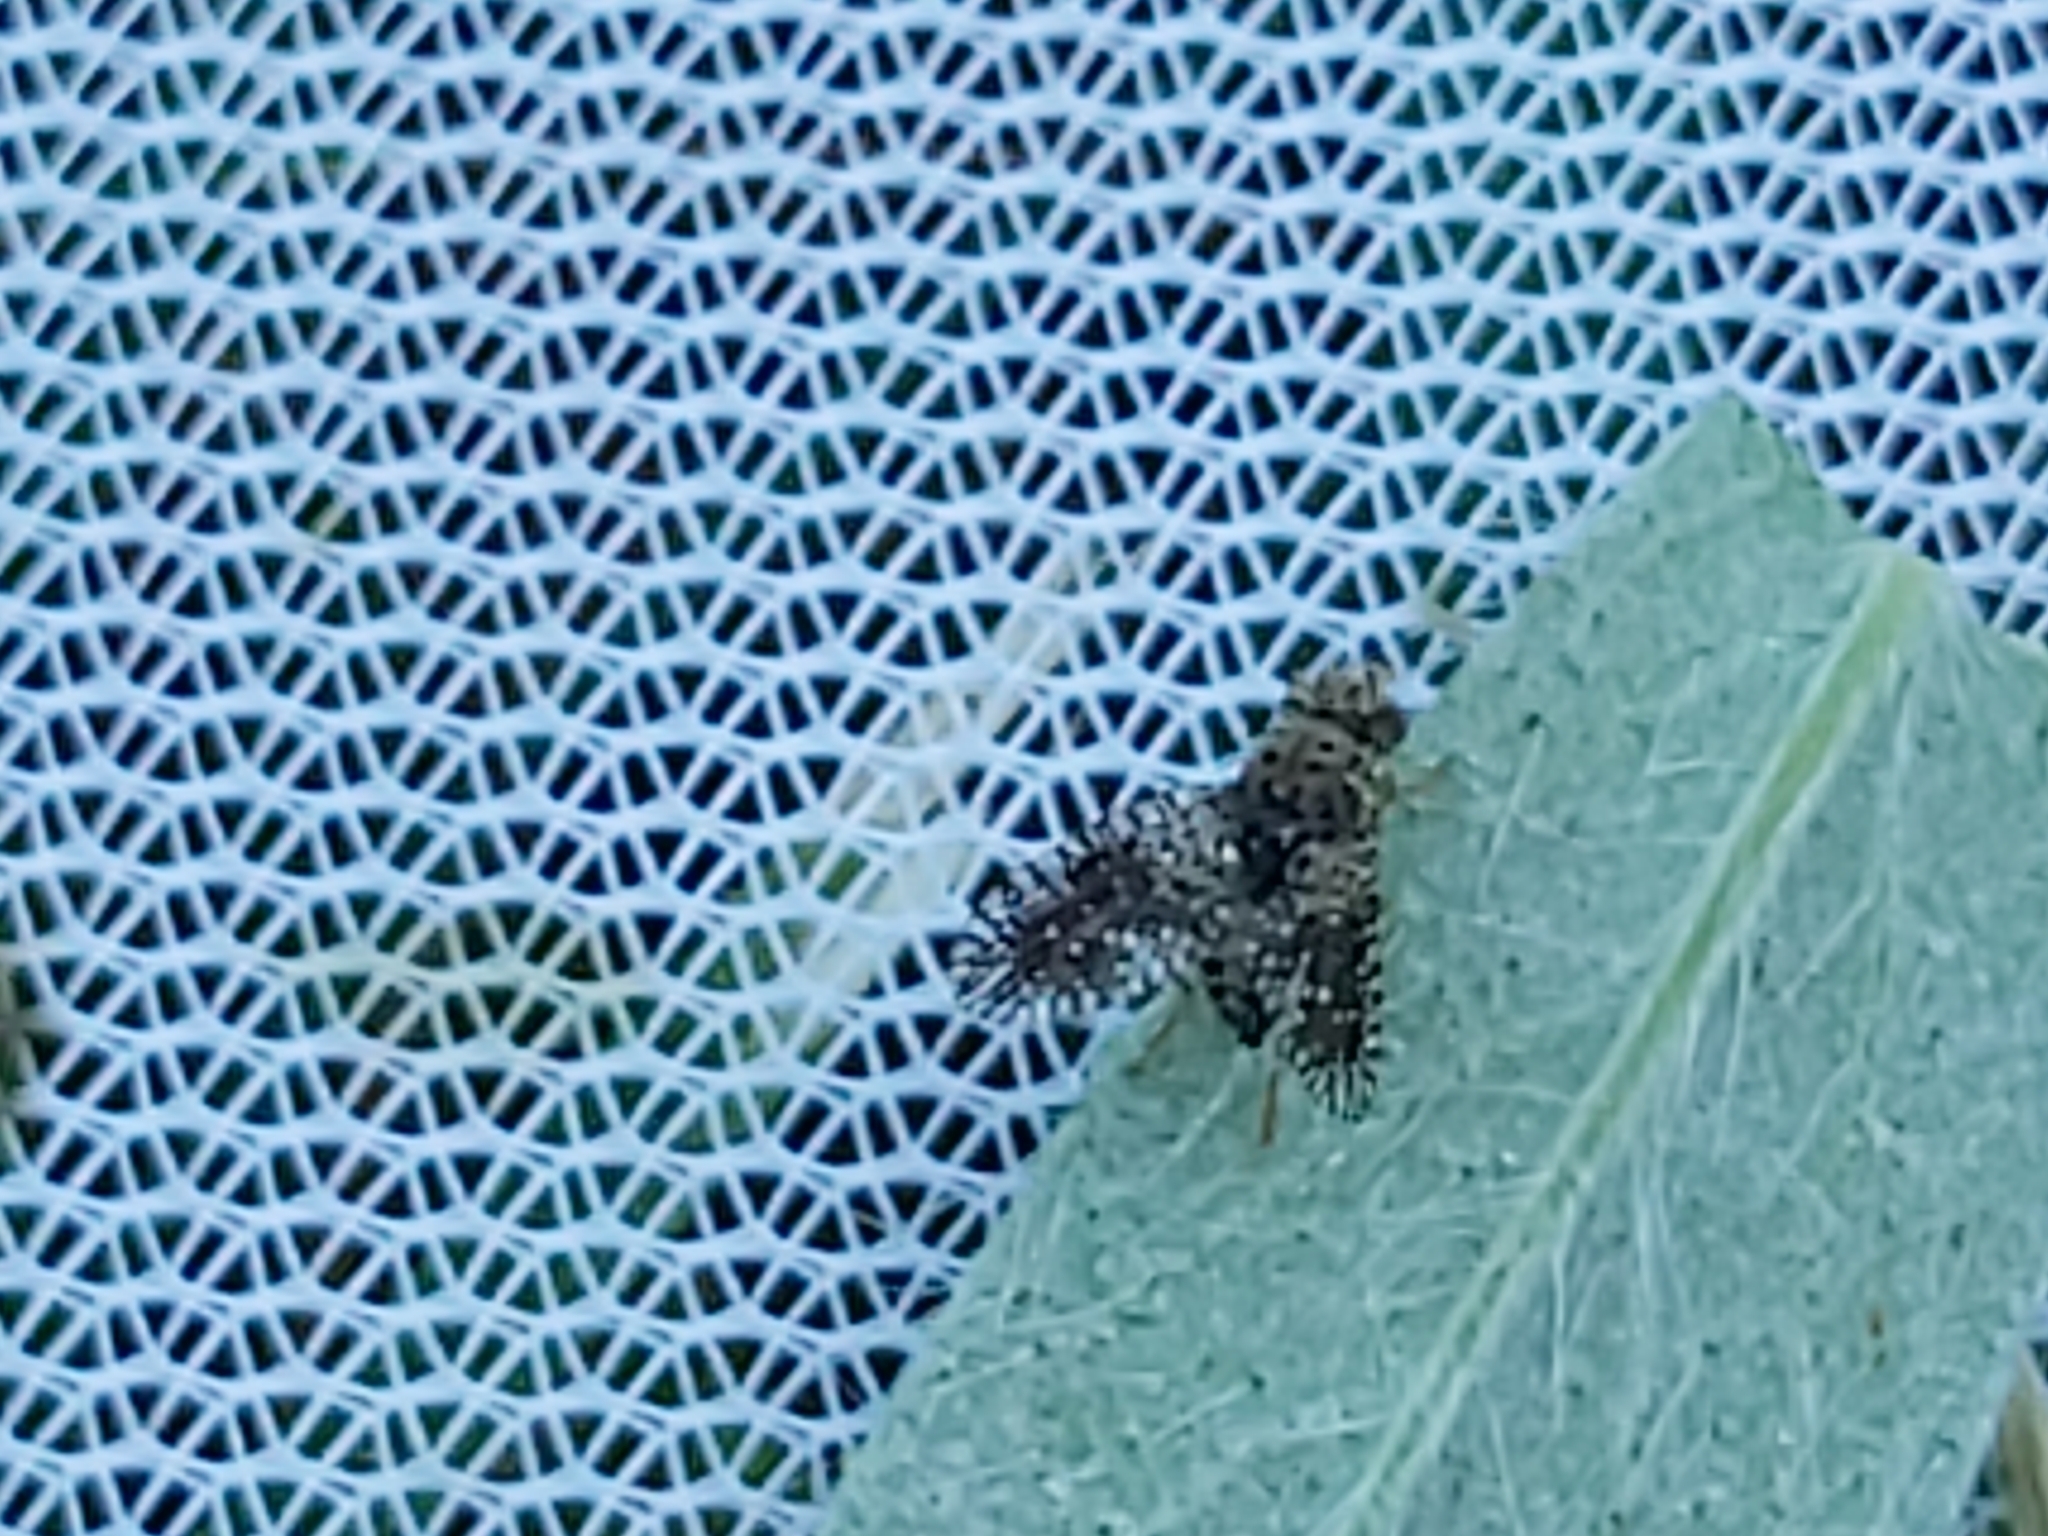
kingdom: Animalia
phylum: Arthropoda
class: Insecta
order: Diptera
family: Tephritidae
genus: Noeeta
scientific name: Noeeta pupillata
